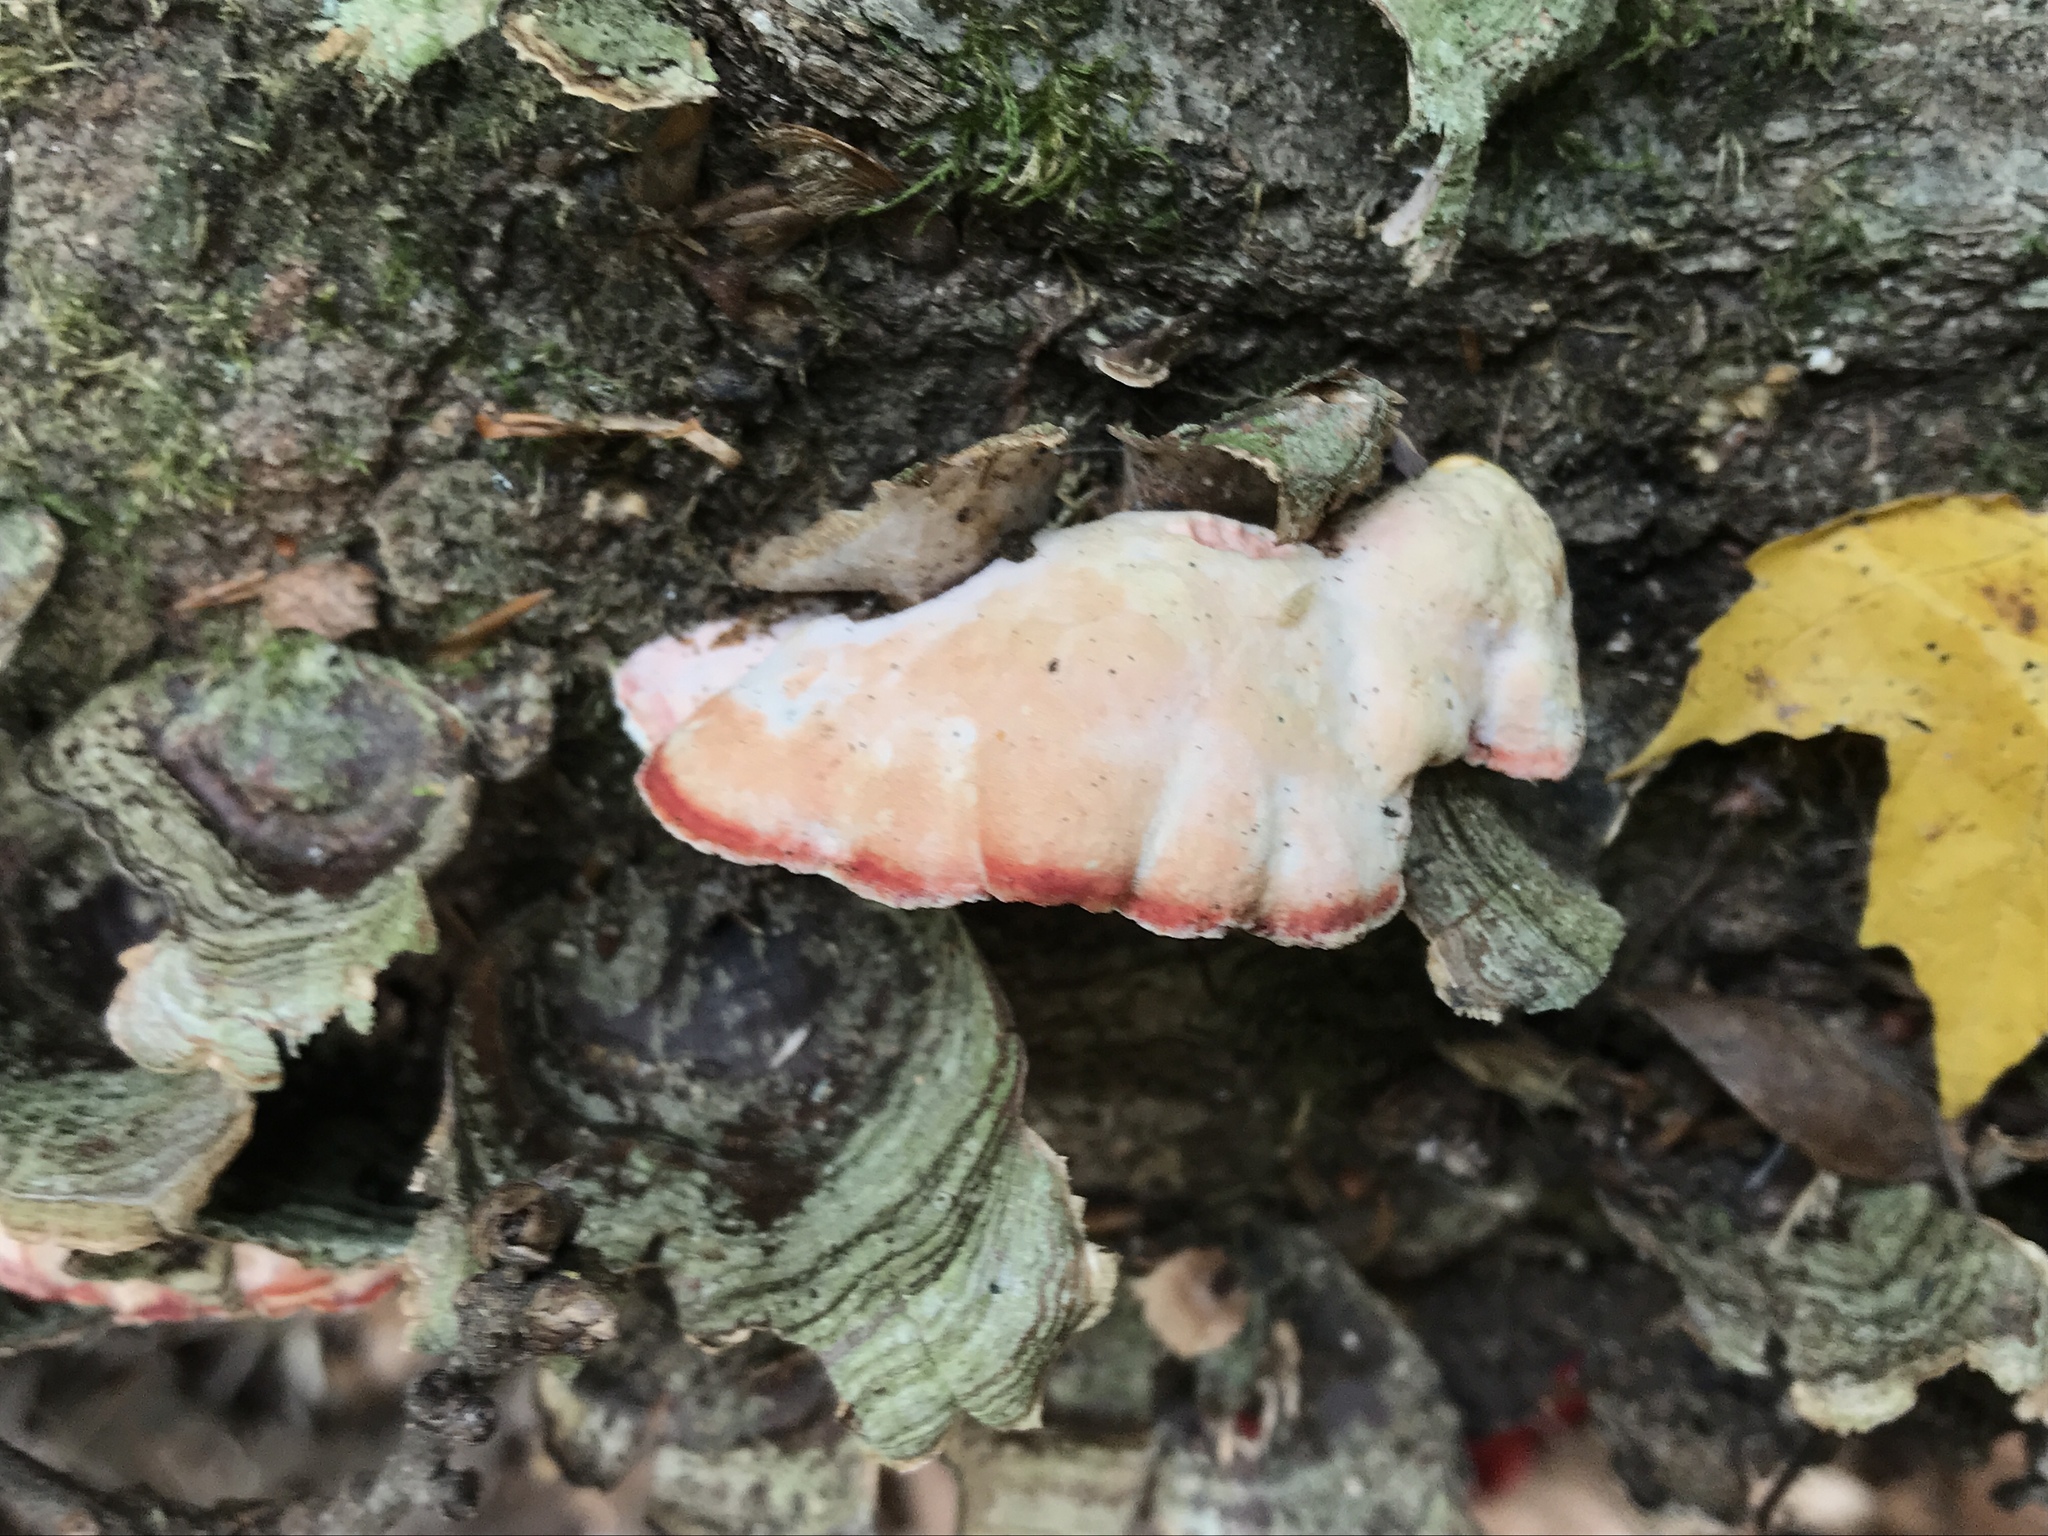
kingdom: Fungi
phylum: Basidiomycota
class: Agaricomycetes
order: Polyporales
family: Irpicaceae
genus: Byssomerulius
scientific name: Byssomerulius incarnatus
